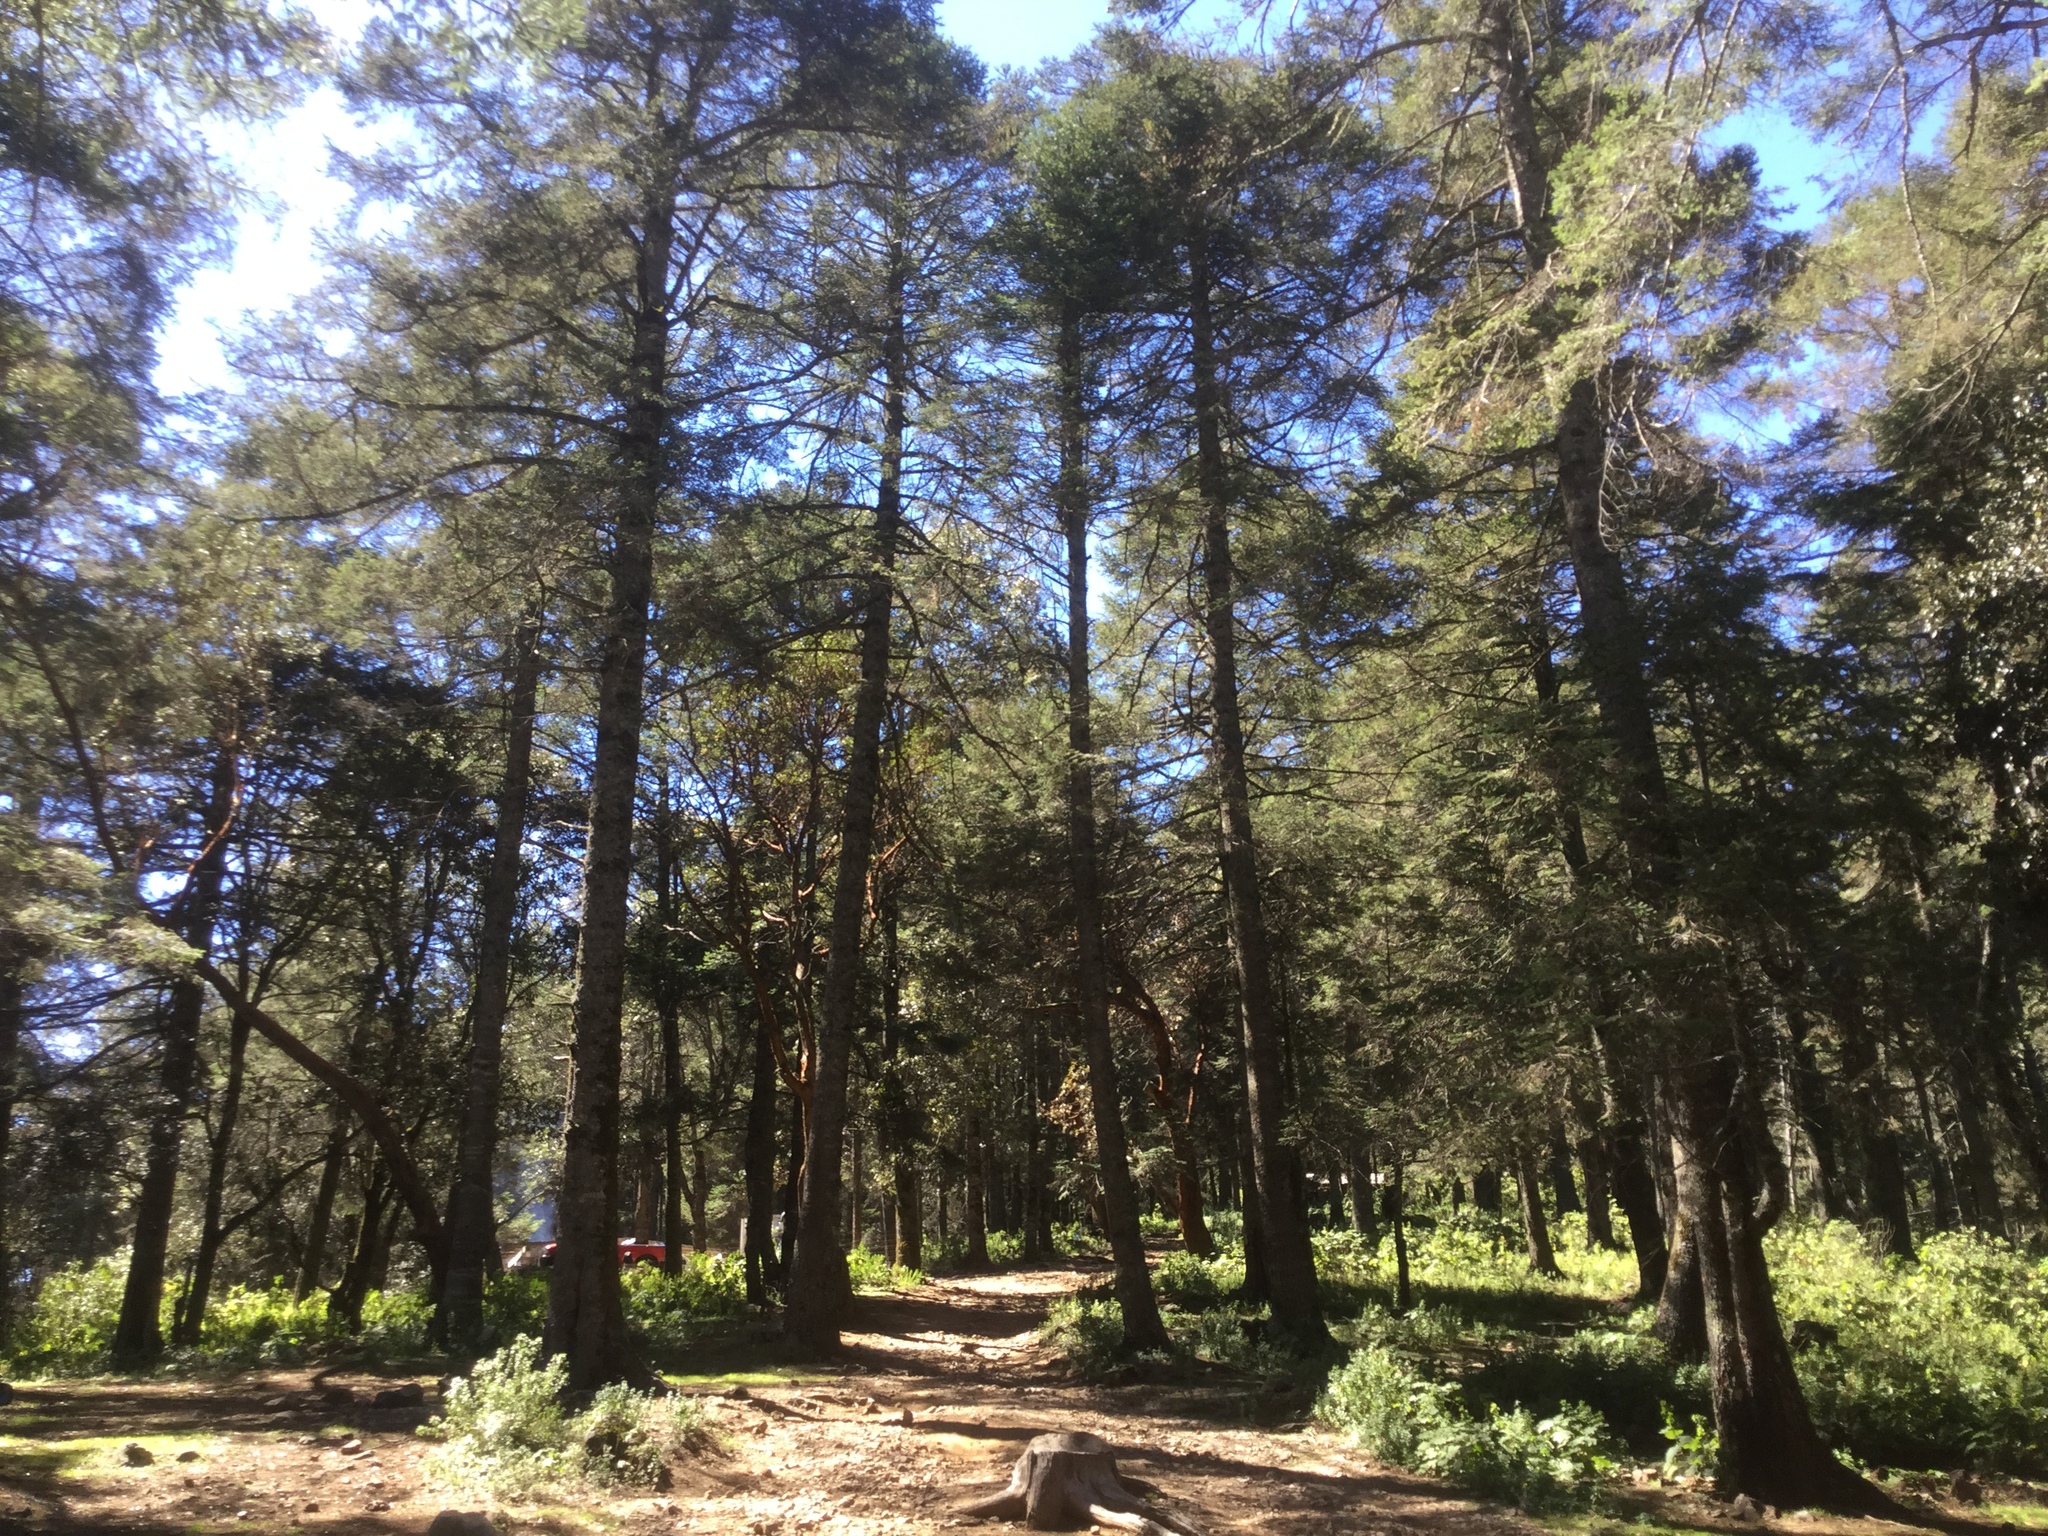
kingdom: Plantae
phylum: Tracheophyta
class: Pinopsida
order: Pinales
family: Pinaceae
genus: Abies
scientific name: Abies religiosa
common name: Sacred fir
